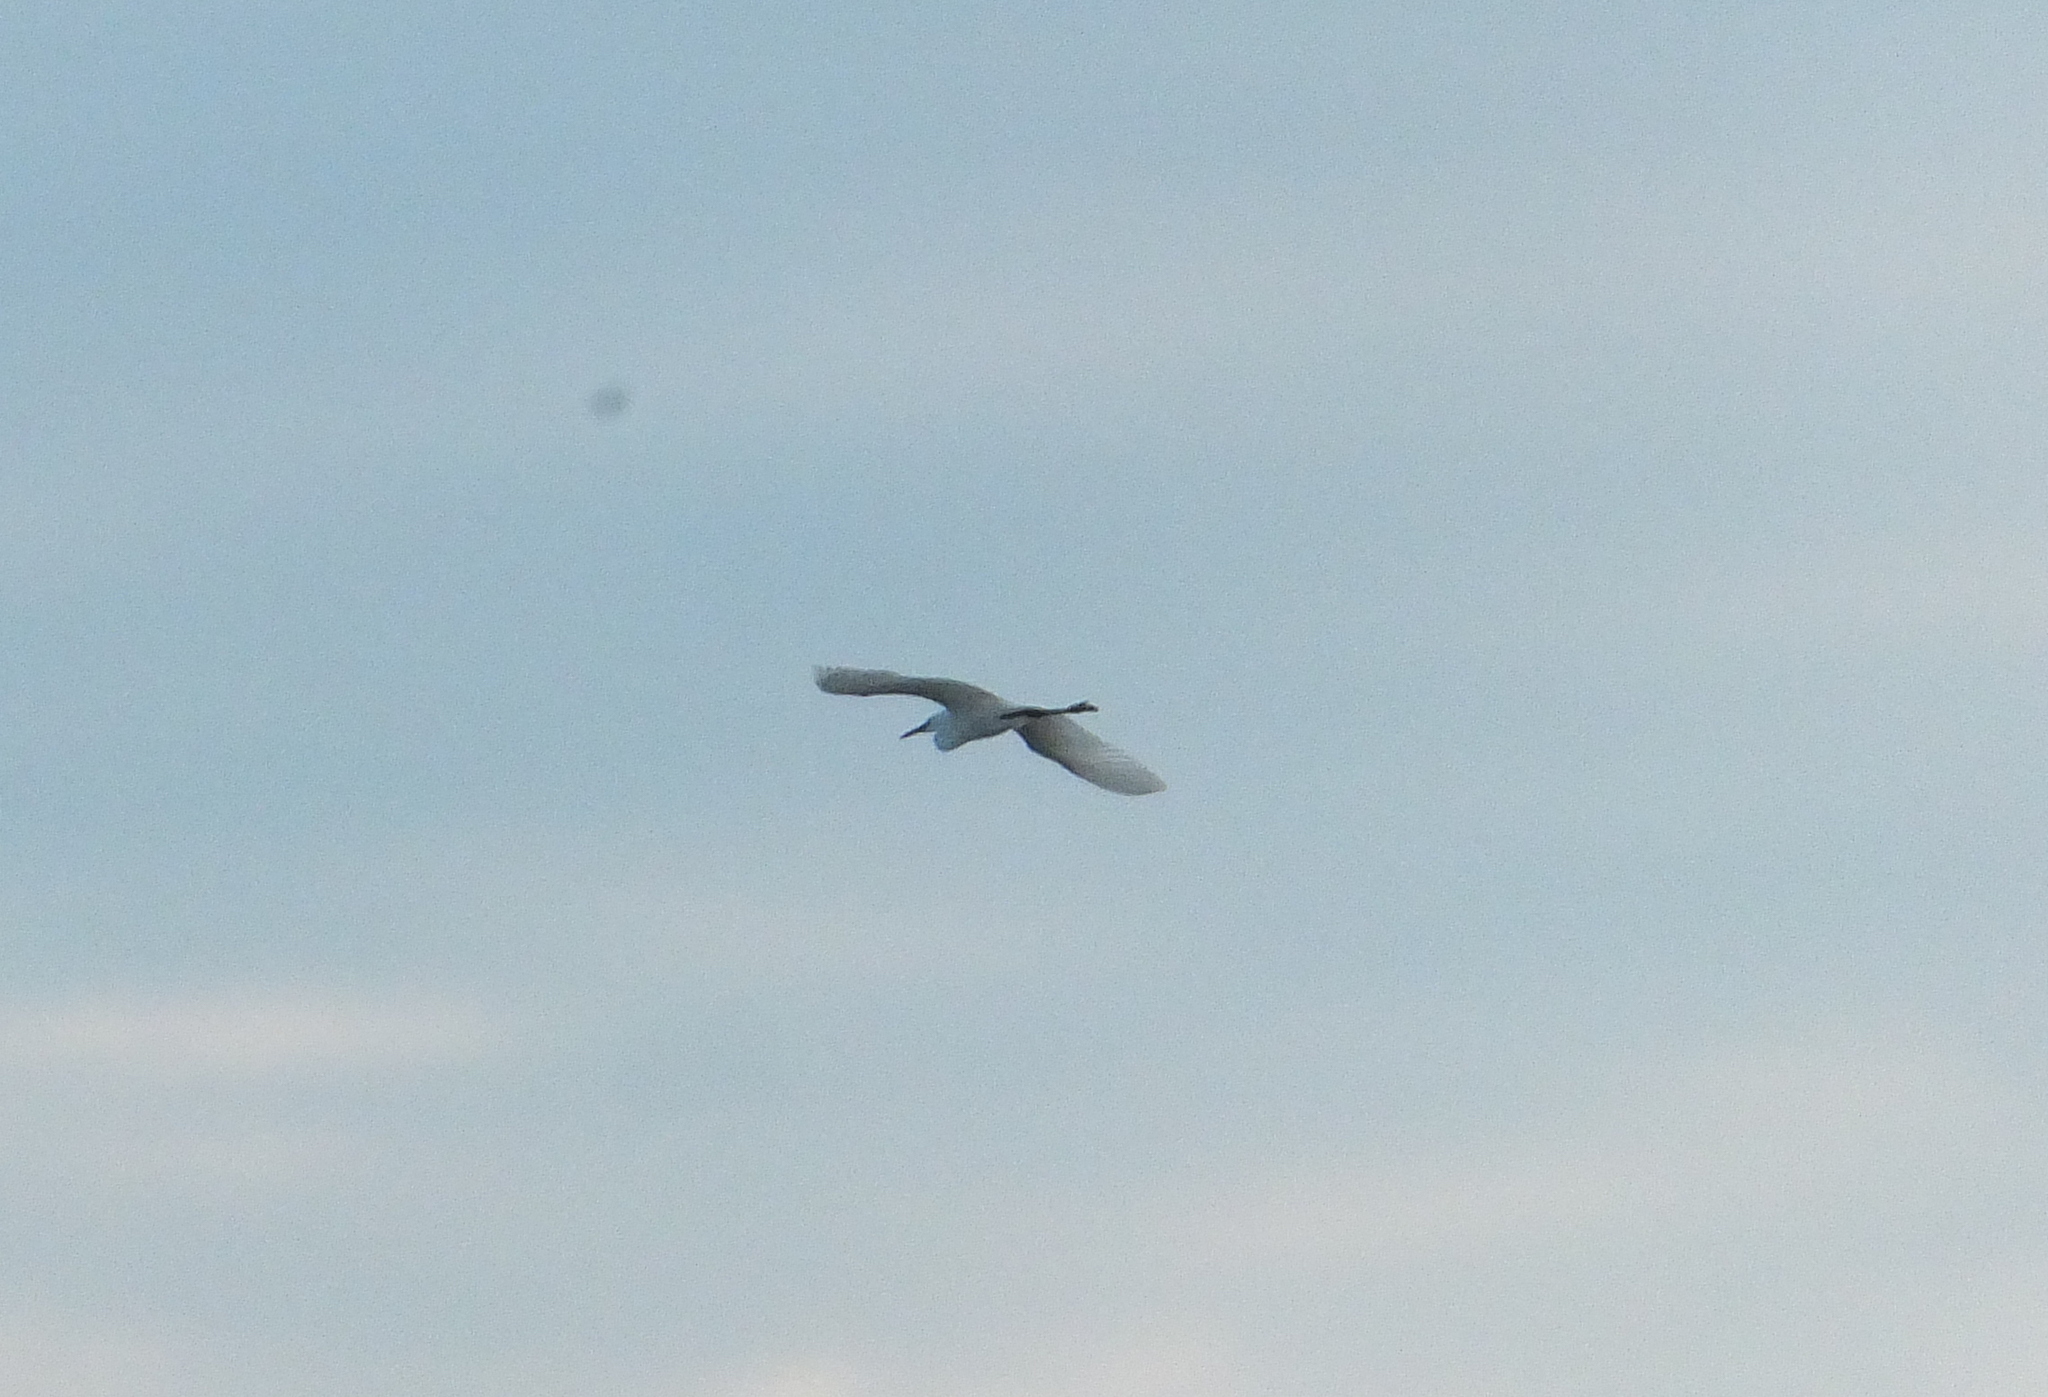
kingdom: Animalia
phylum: Chordata
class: Aves
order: Pelecaniformes
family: Ardeidae
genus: Egretta
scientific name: Egretta garzetta
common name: Little egret
